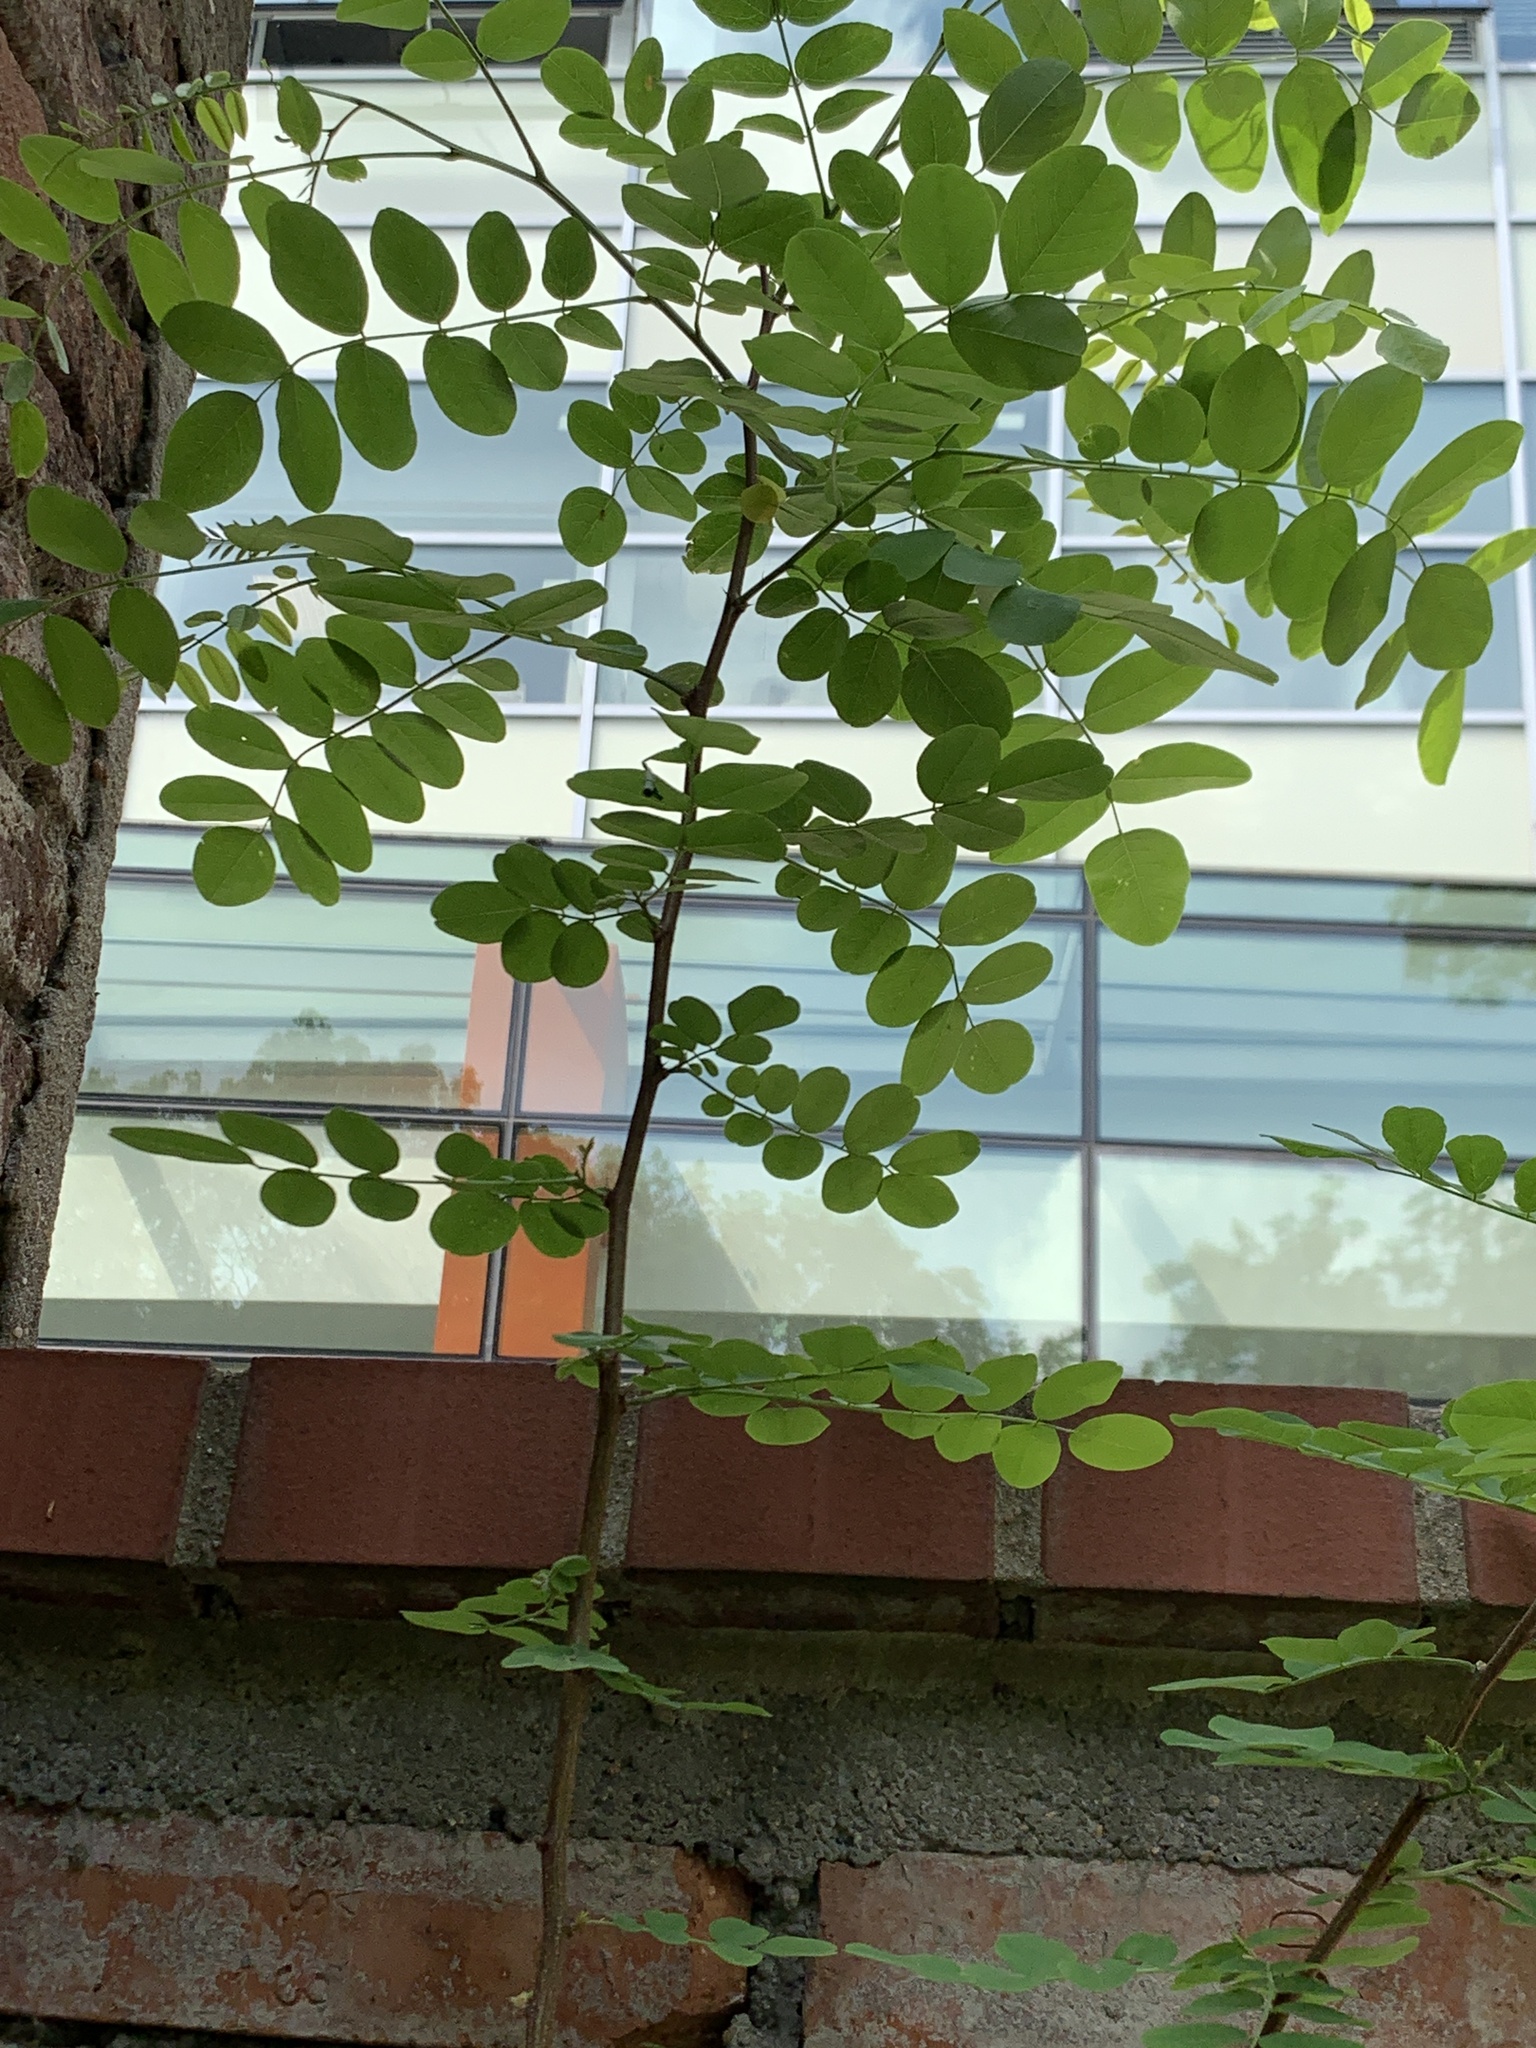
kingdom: Plantae
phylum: Tracheophyta
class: Magnoliopsida
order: Fabales
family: Fabaceae
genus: Robinia
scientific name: Robinia pseudoacacia
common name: Black locust
